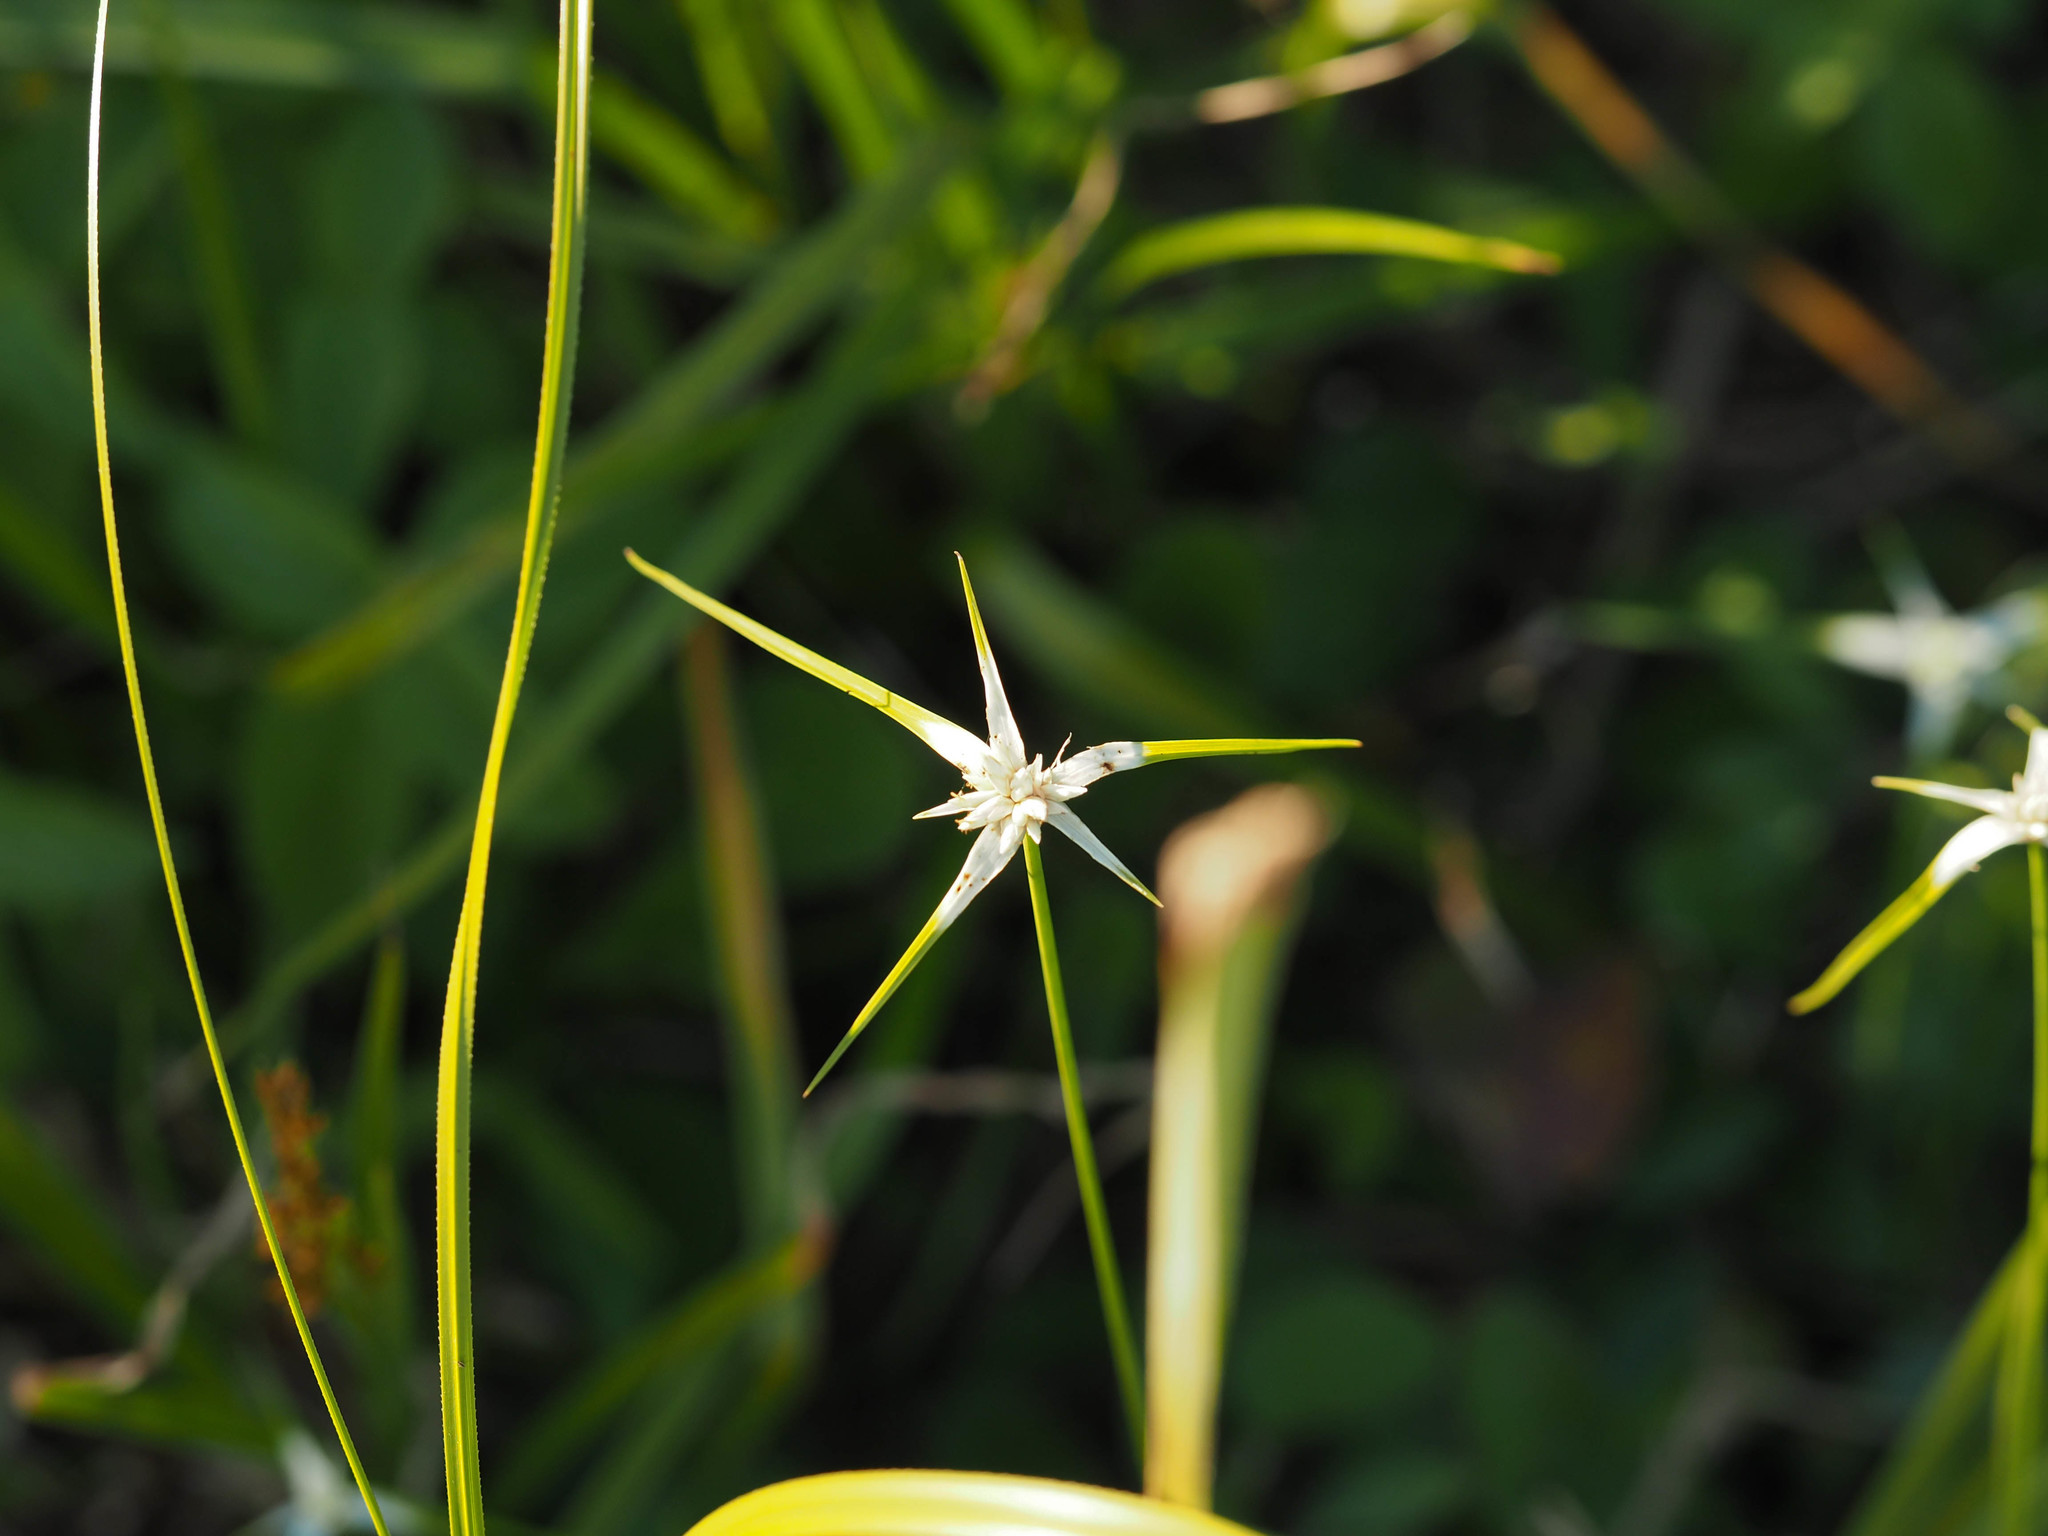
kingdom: Plantae
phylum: Tracheophyta
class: Liliopsida
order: Poales
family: Cyperaceae
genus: Rhynchospora
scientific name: Rhynchospora colorata
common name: Star sedge
